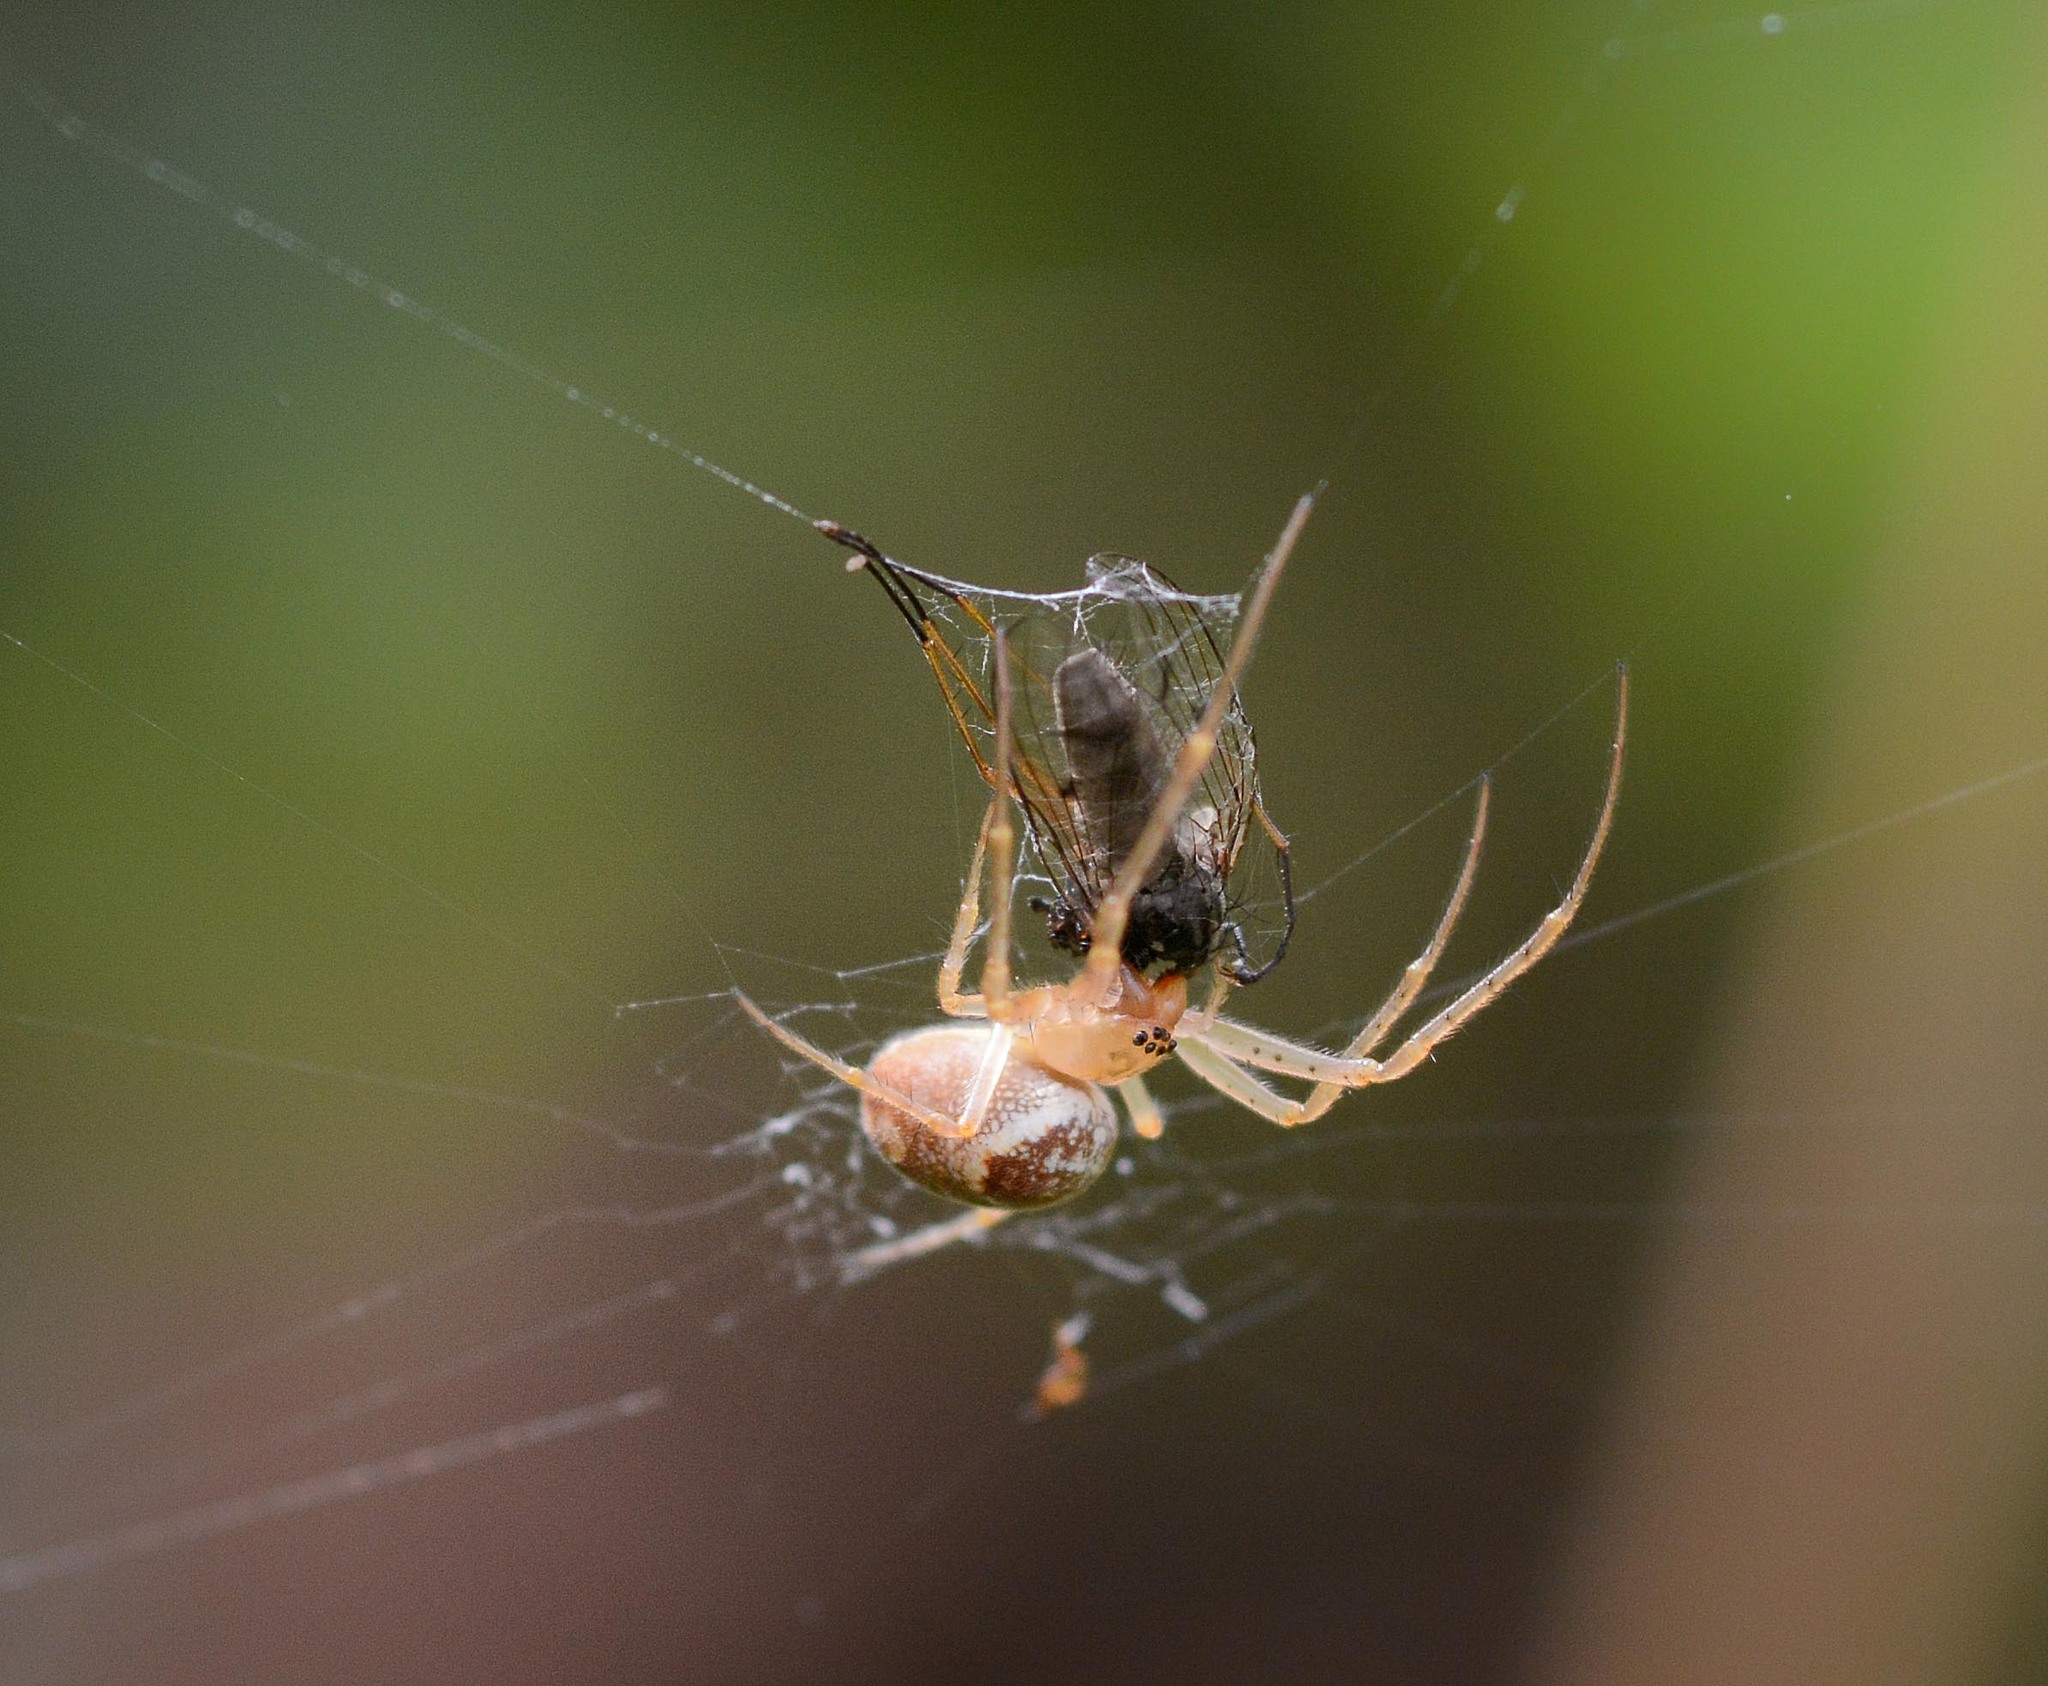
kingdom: Animalia
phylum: Arthropoda
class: Arachnida
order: Araneae
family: Tetragnathidae
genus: Metellina
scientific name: Metellina
